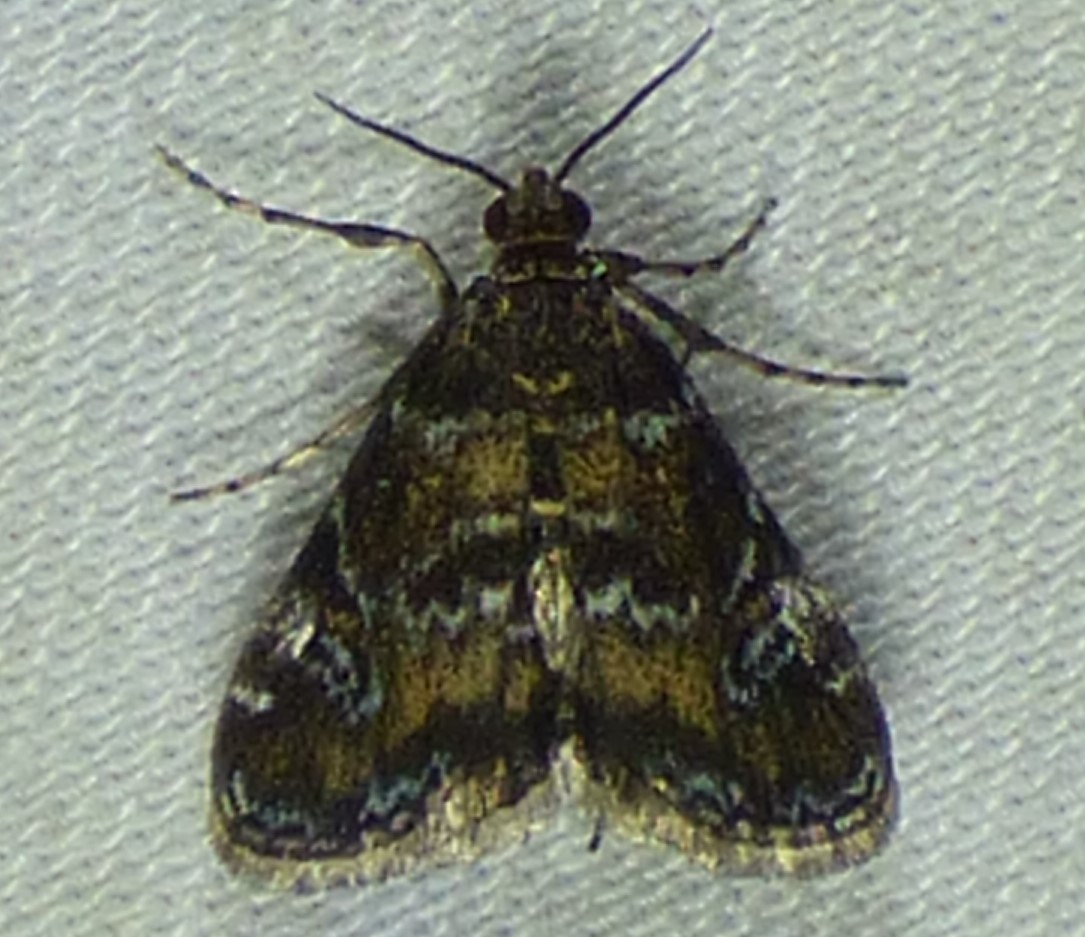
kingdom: Animalia
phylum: Arthropoda
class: Insecta
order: Lepidoptera
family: Crambidae
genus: Elophila
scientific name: Elophila obliteralis
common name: Waterlily leafcutter moth
